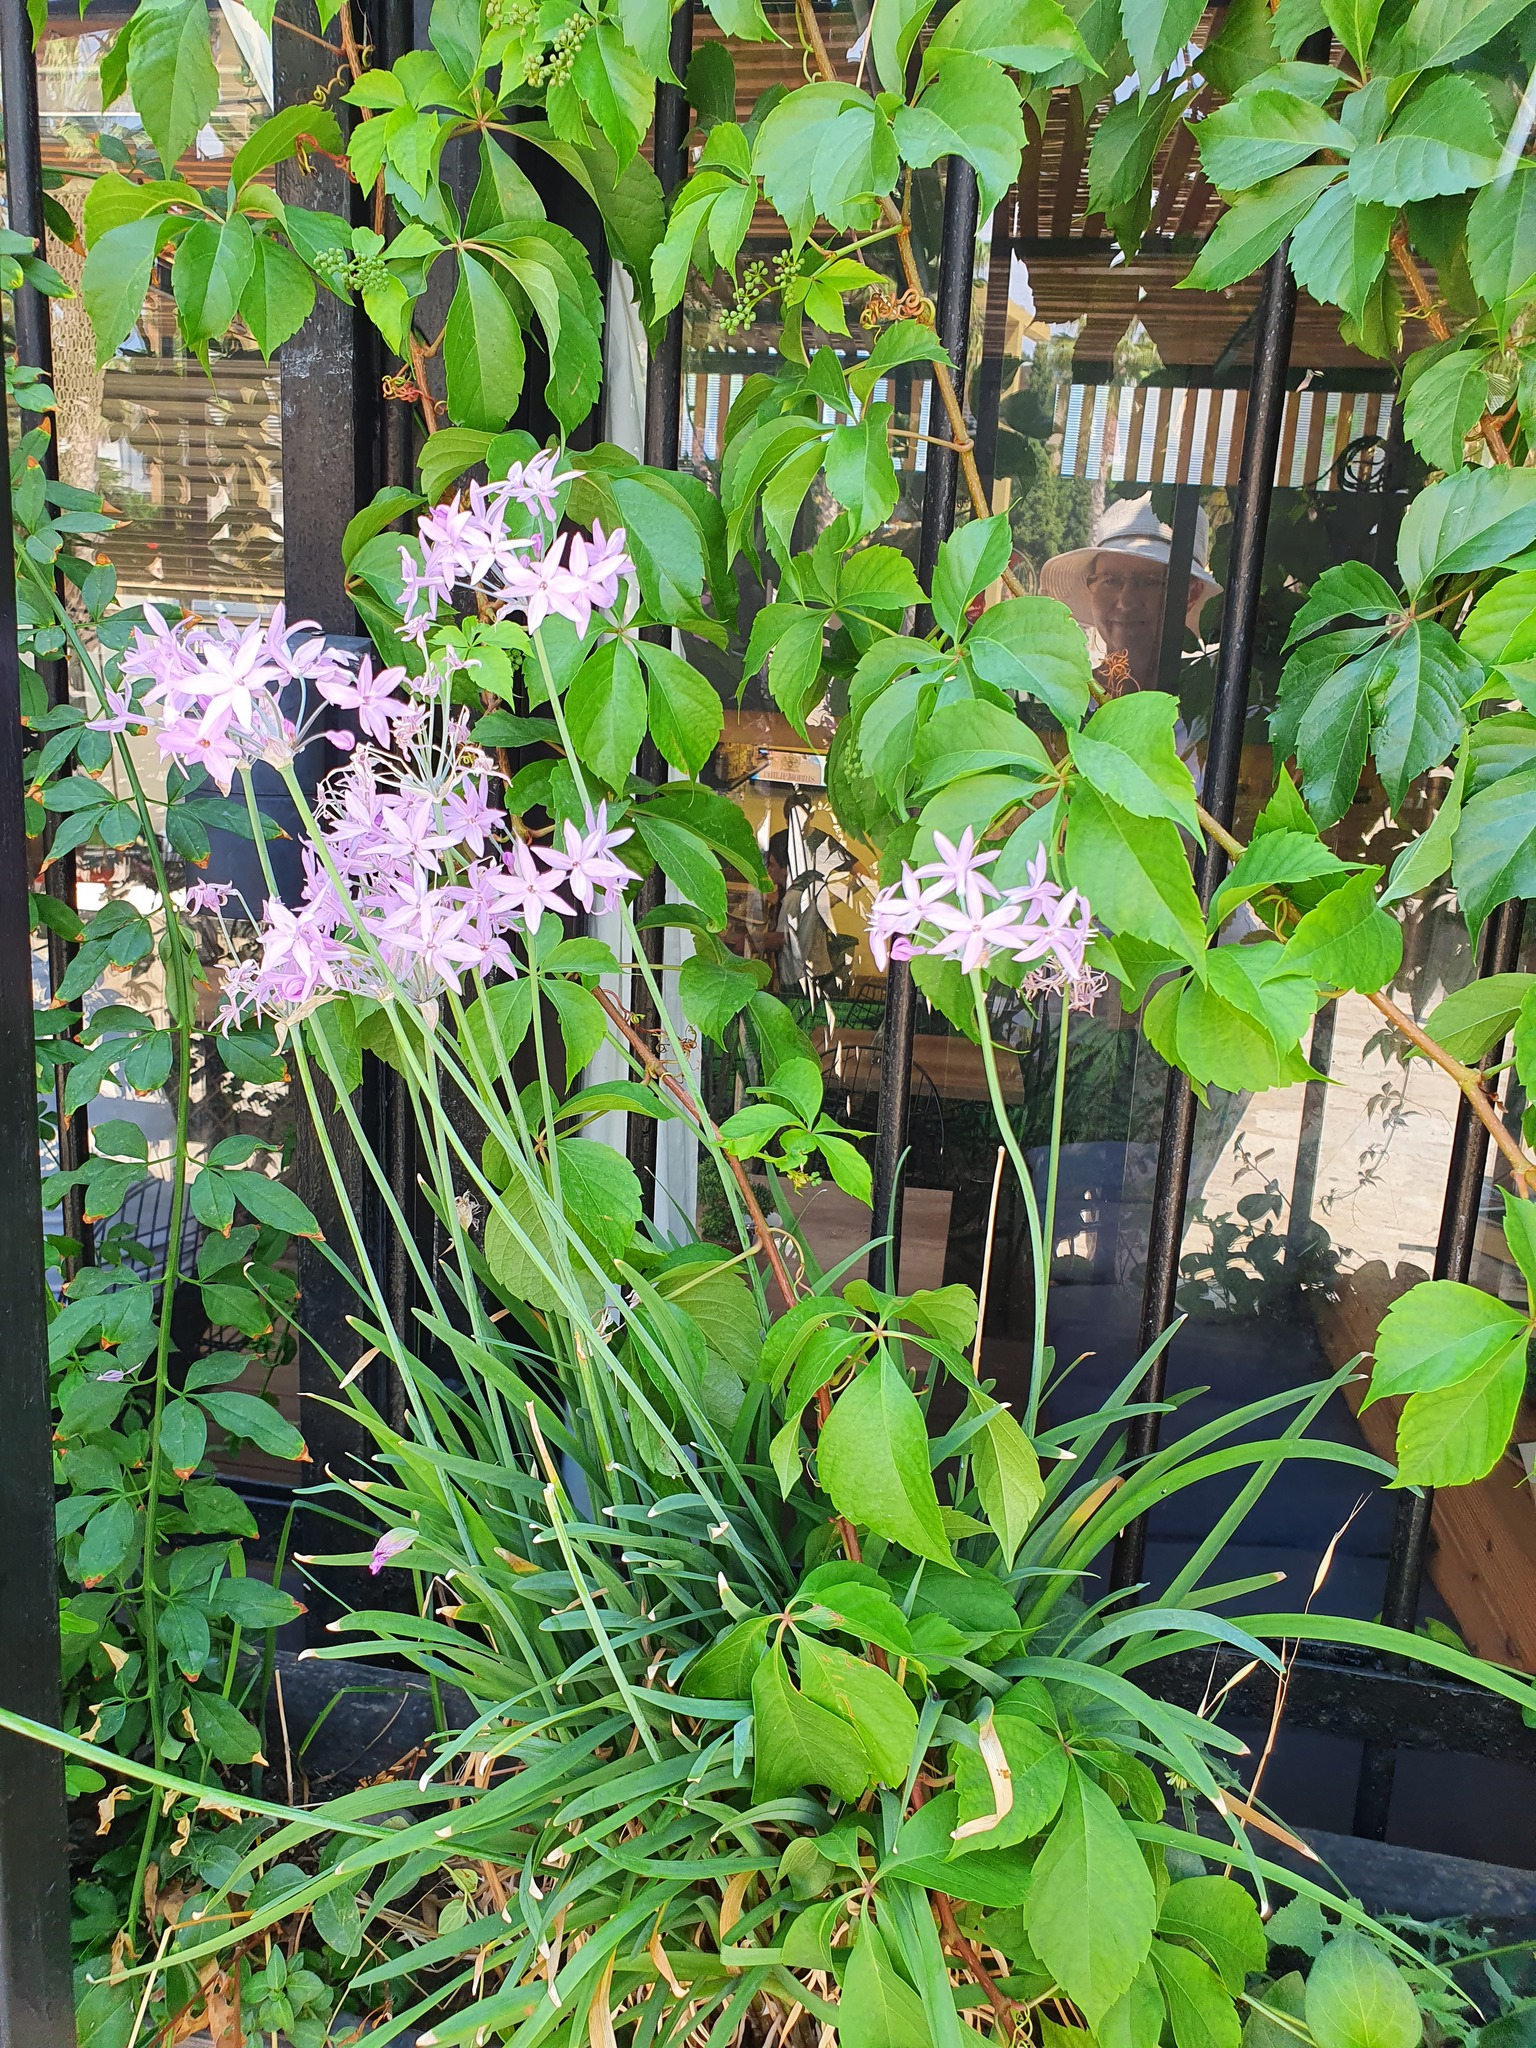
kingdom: Plantae
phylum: Tracheophyta
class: Liliopsida
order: Asparagales
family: Amaryllidaceae
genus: Tulbaghia
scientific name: Tulbaghia violacea
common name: Society garlic
